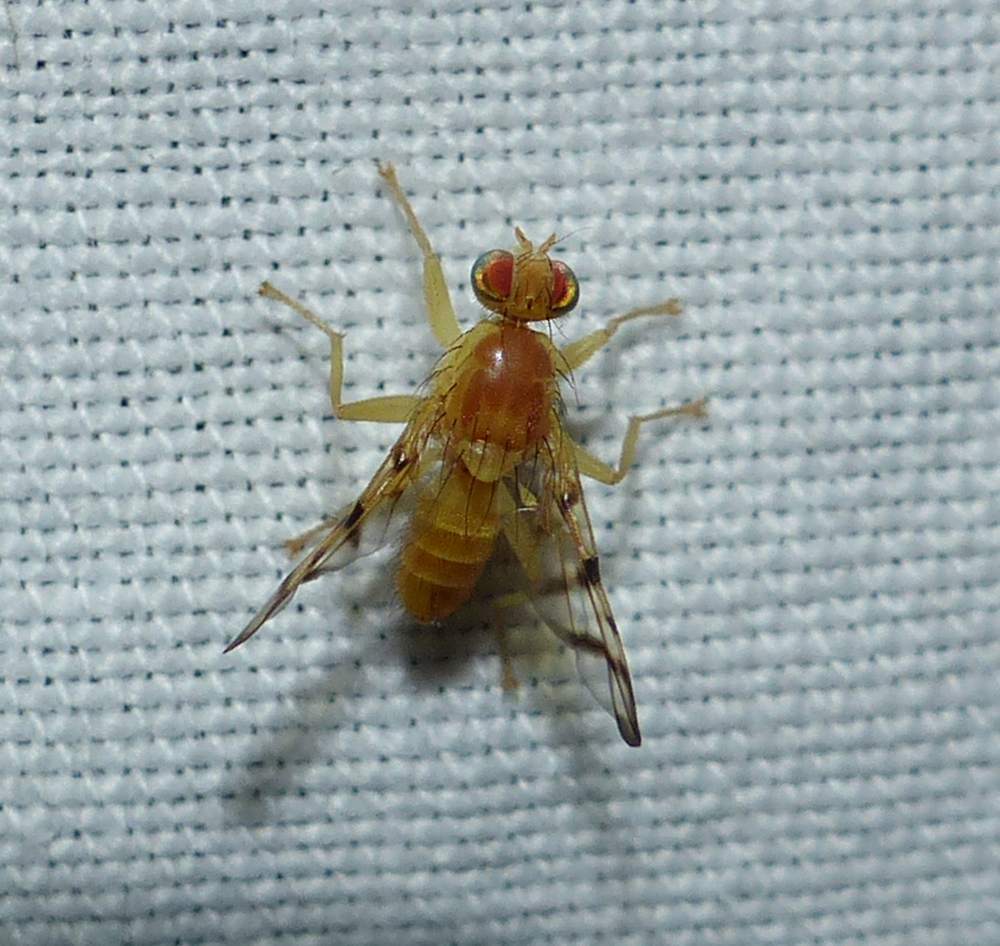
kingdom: Animalia
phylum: Arthropoda
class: Insecta
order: Diptera
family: Tephritidae
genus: Rhagoletis
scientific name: Rhagoletis basiola
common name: Rose hip fly
